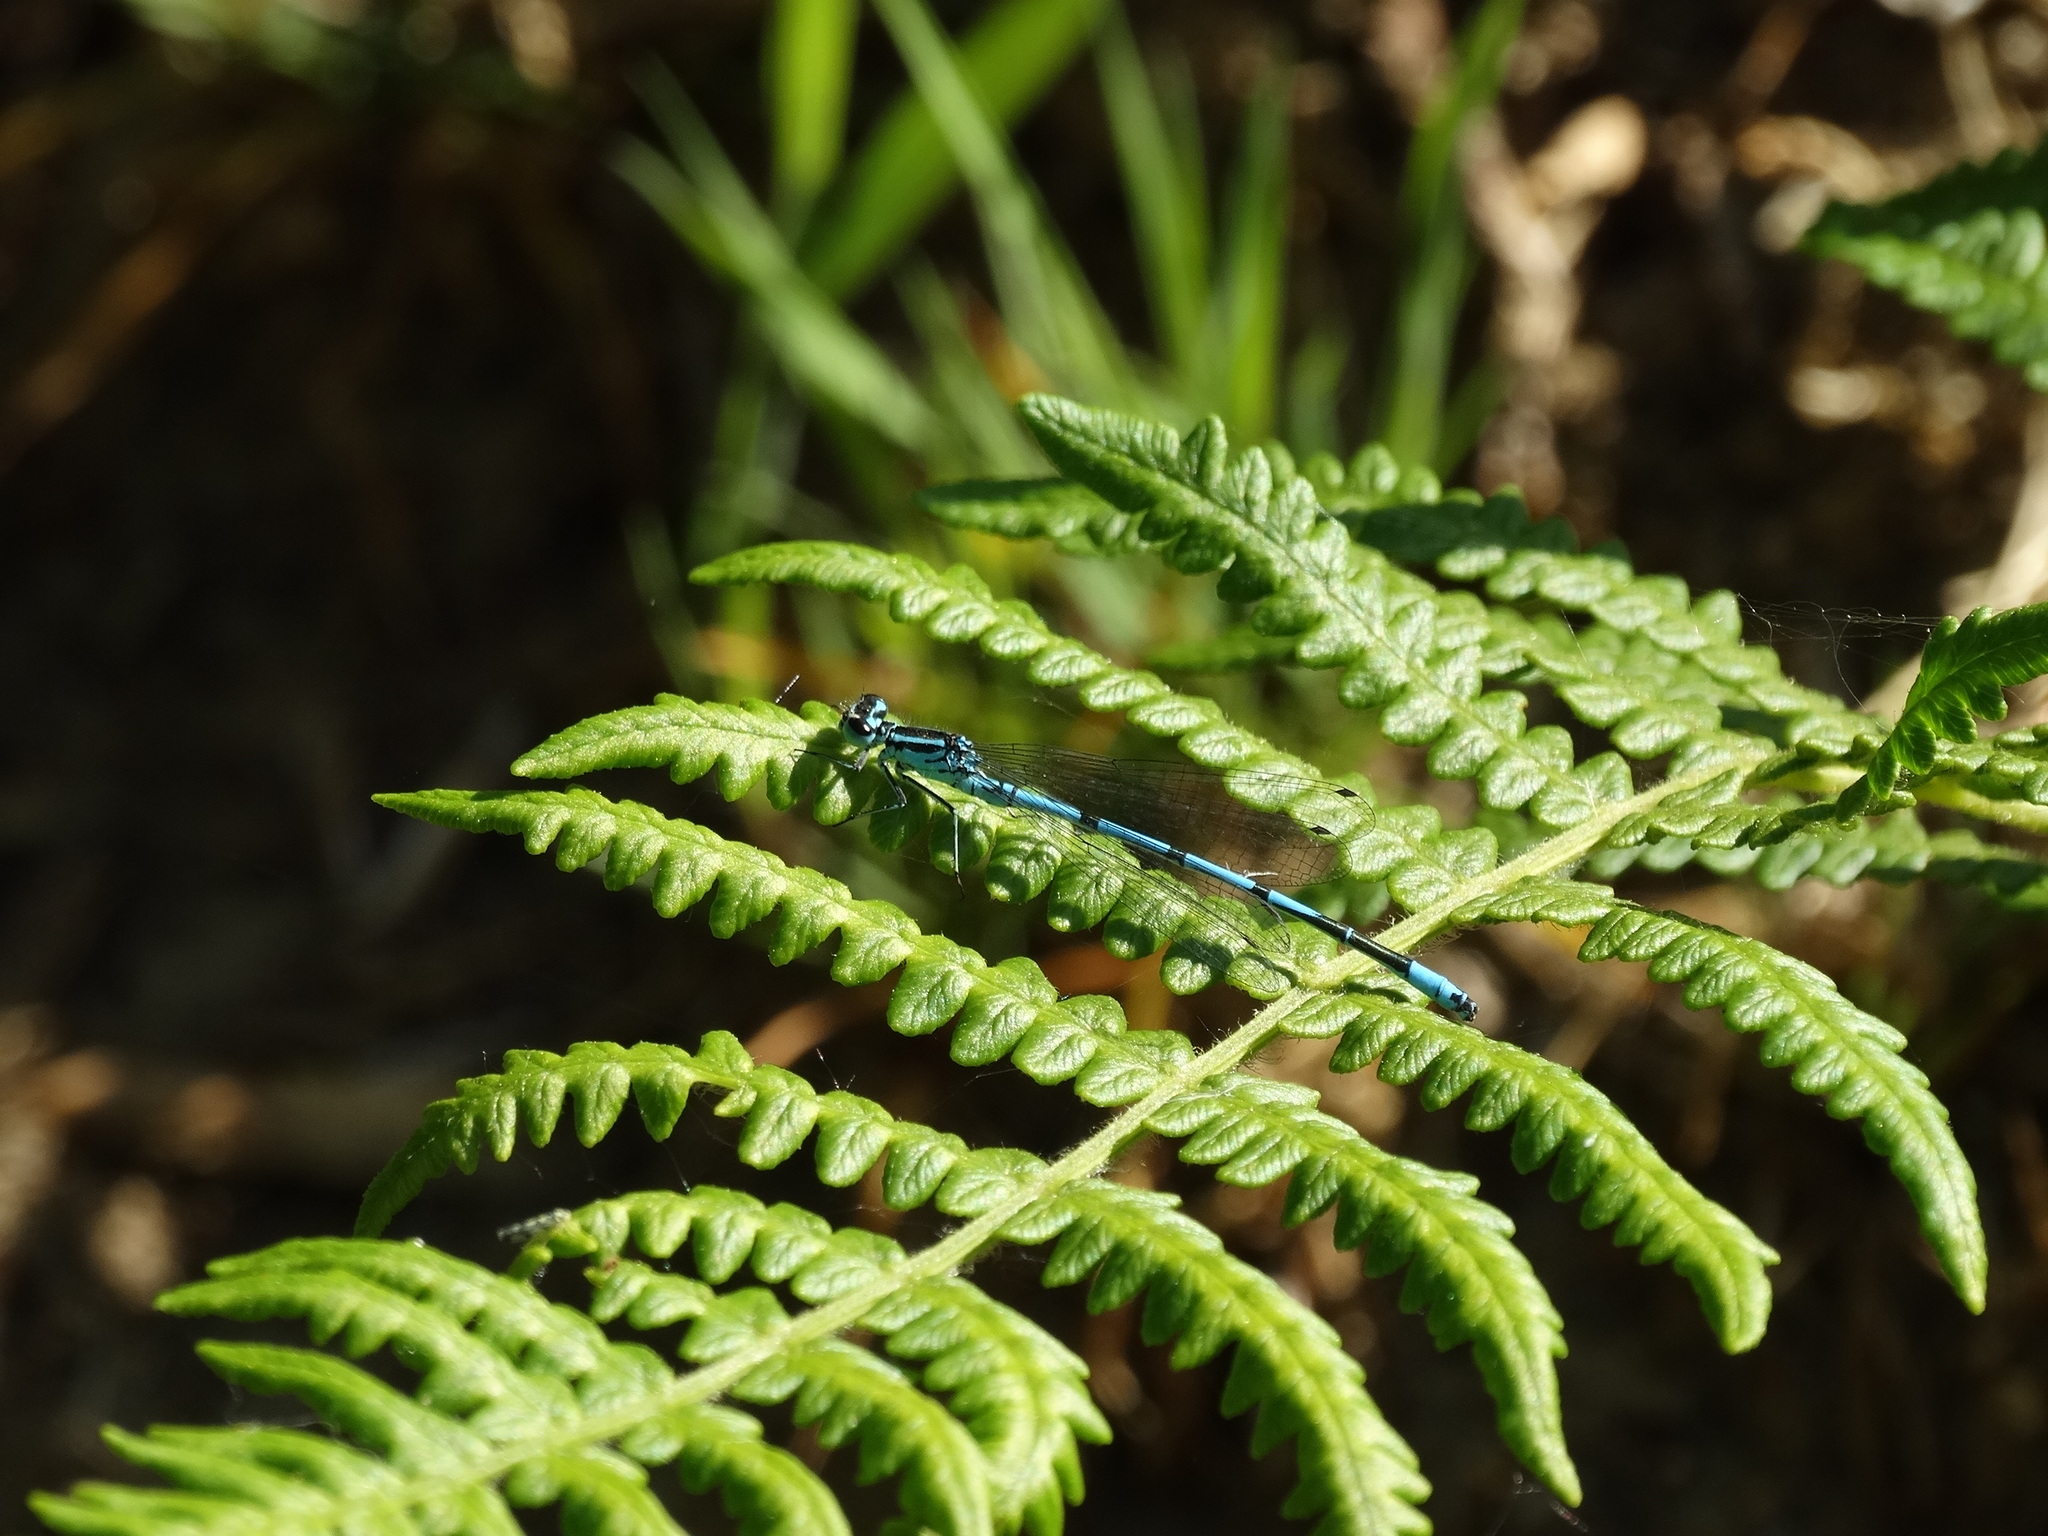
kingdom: Animalia
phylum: Arthropoda
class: Insecta
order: Odonata
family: Coenagrionidae
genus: Coenagrion
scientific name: Coenagrion puella
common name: Azure damselfly
